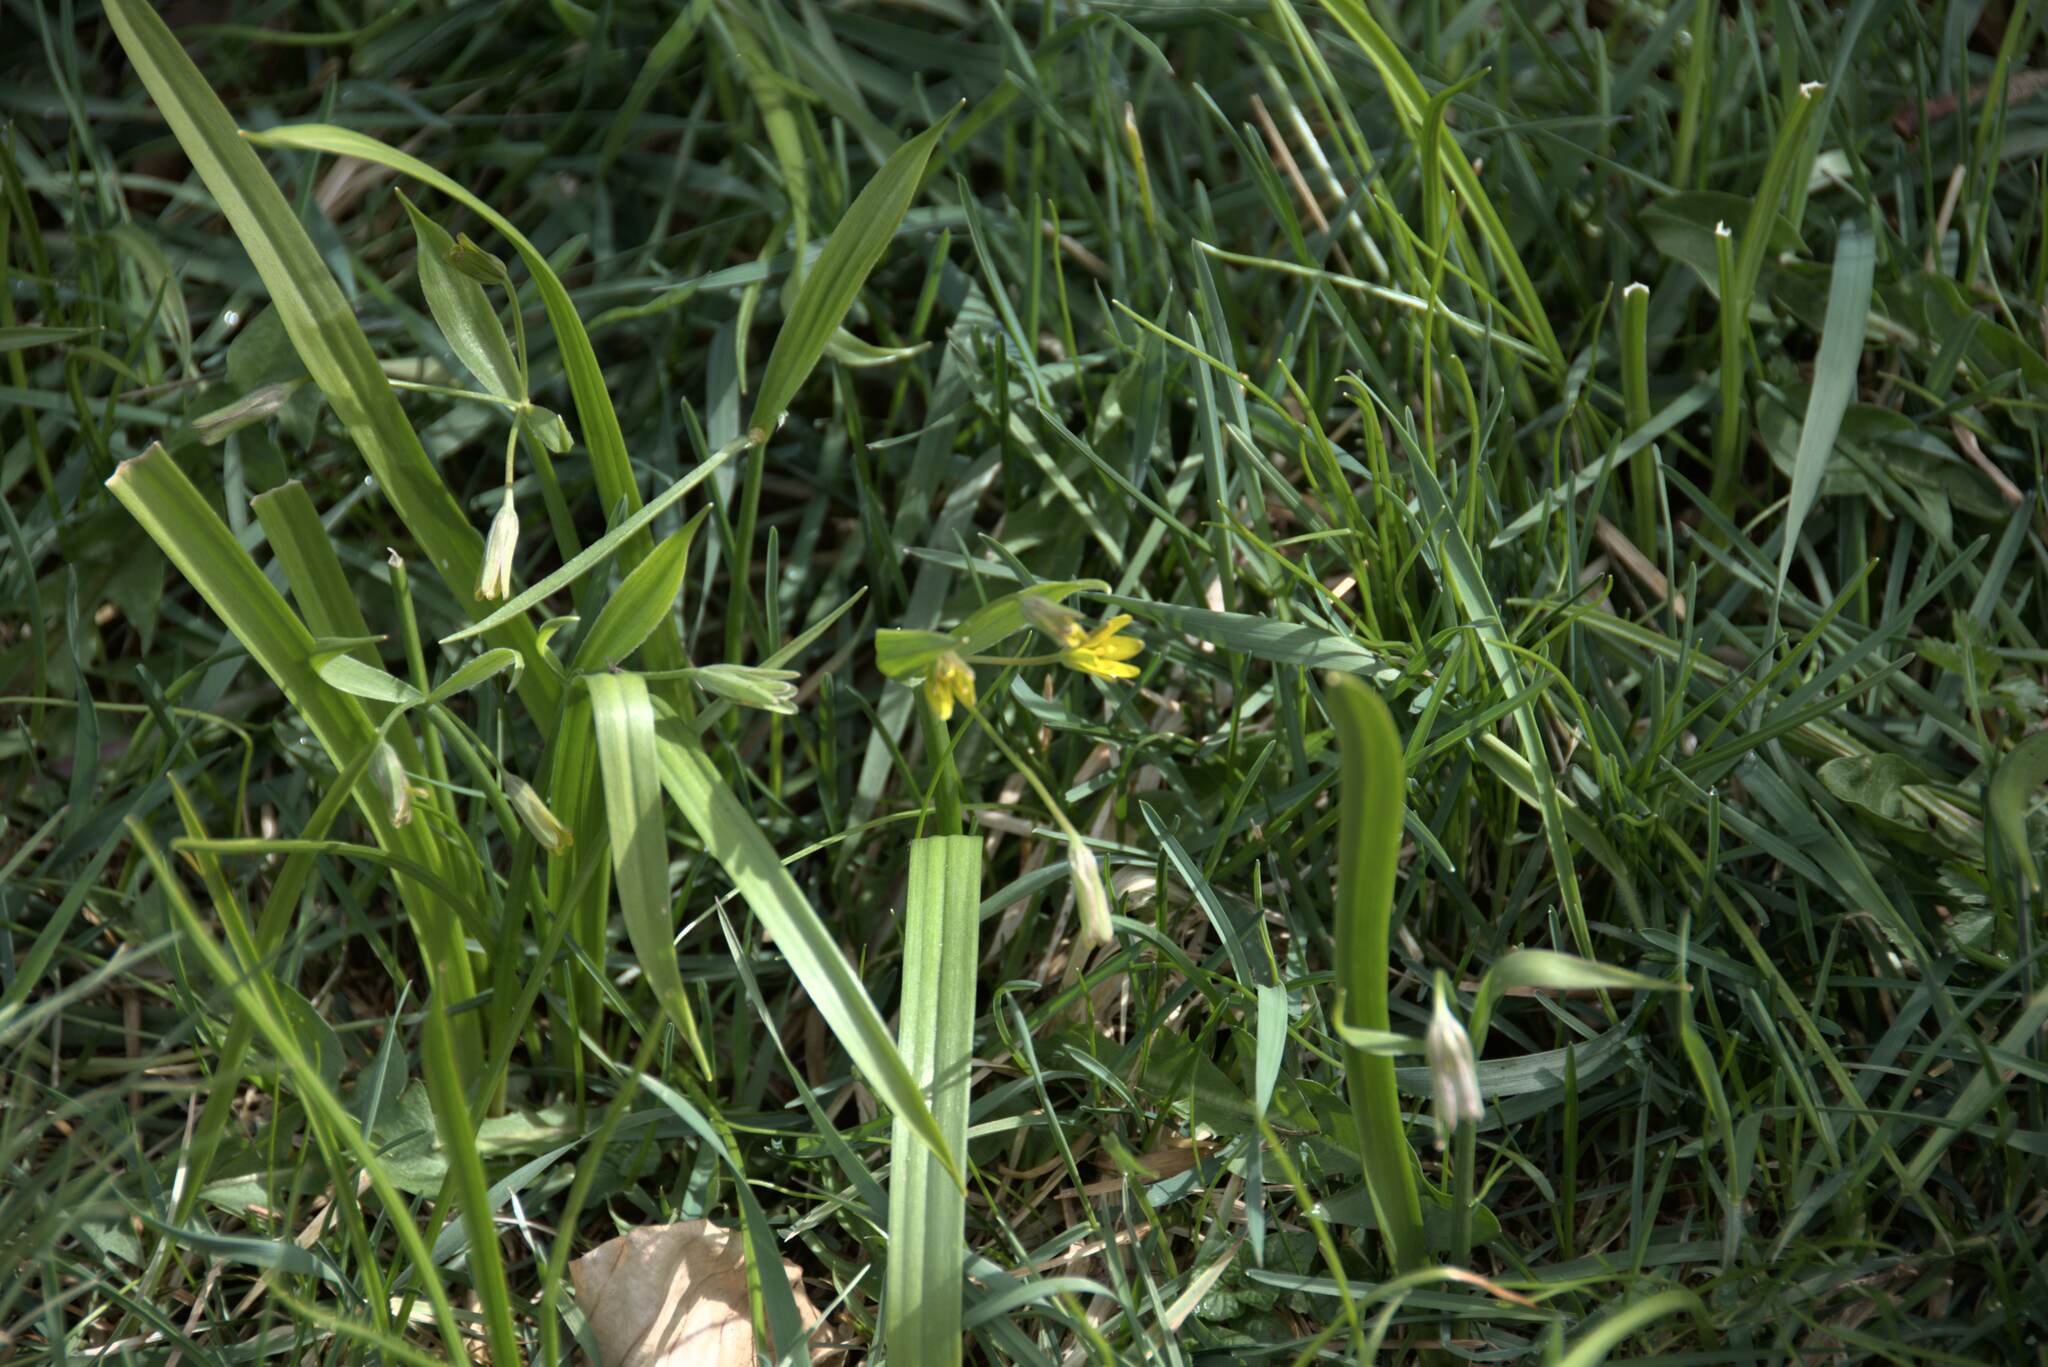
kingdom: Plantae
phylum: Tracheophyta
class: Liliopsida
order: Liliales
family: Liliaceae
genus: Gagea
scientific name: Gagea lutea
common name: Yellow star-of-bethlehem
